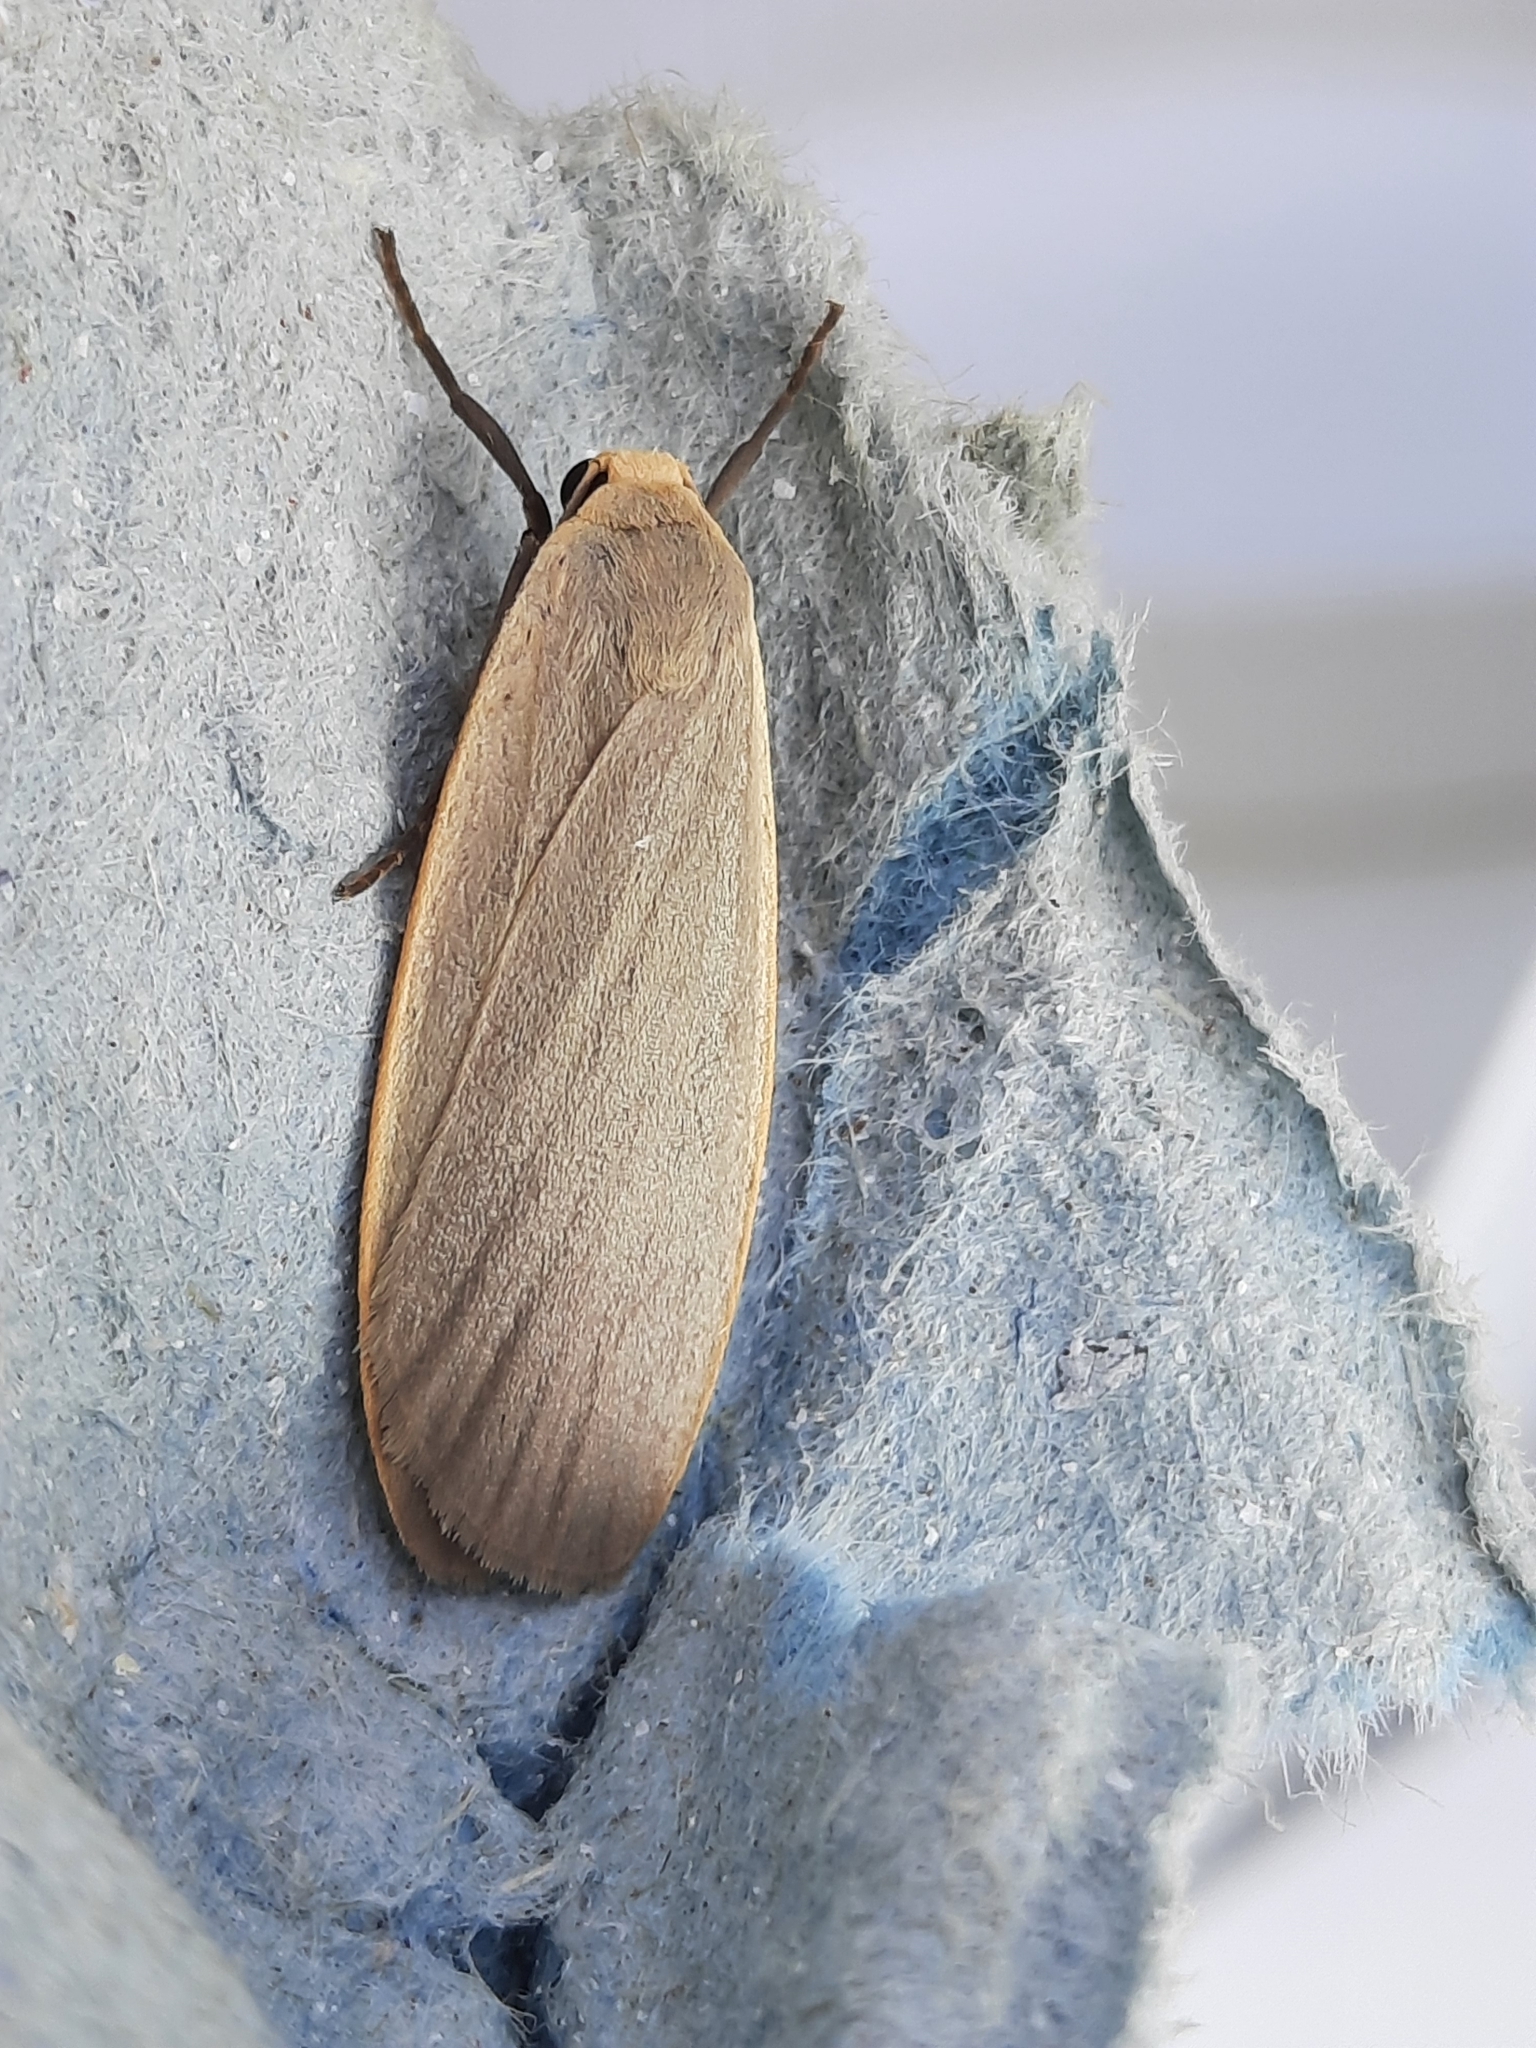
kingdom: Animalia
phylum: Arthropoda
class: Insecta
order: Lepidoptera
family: Erebidae
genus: Collita
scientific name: Collita griseola
